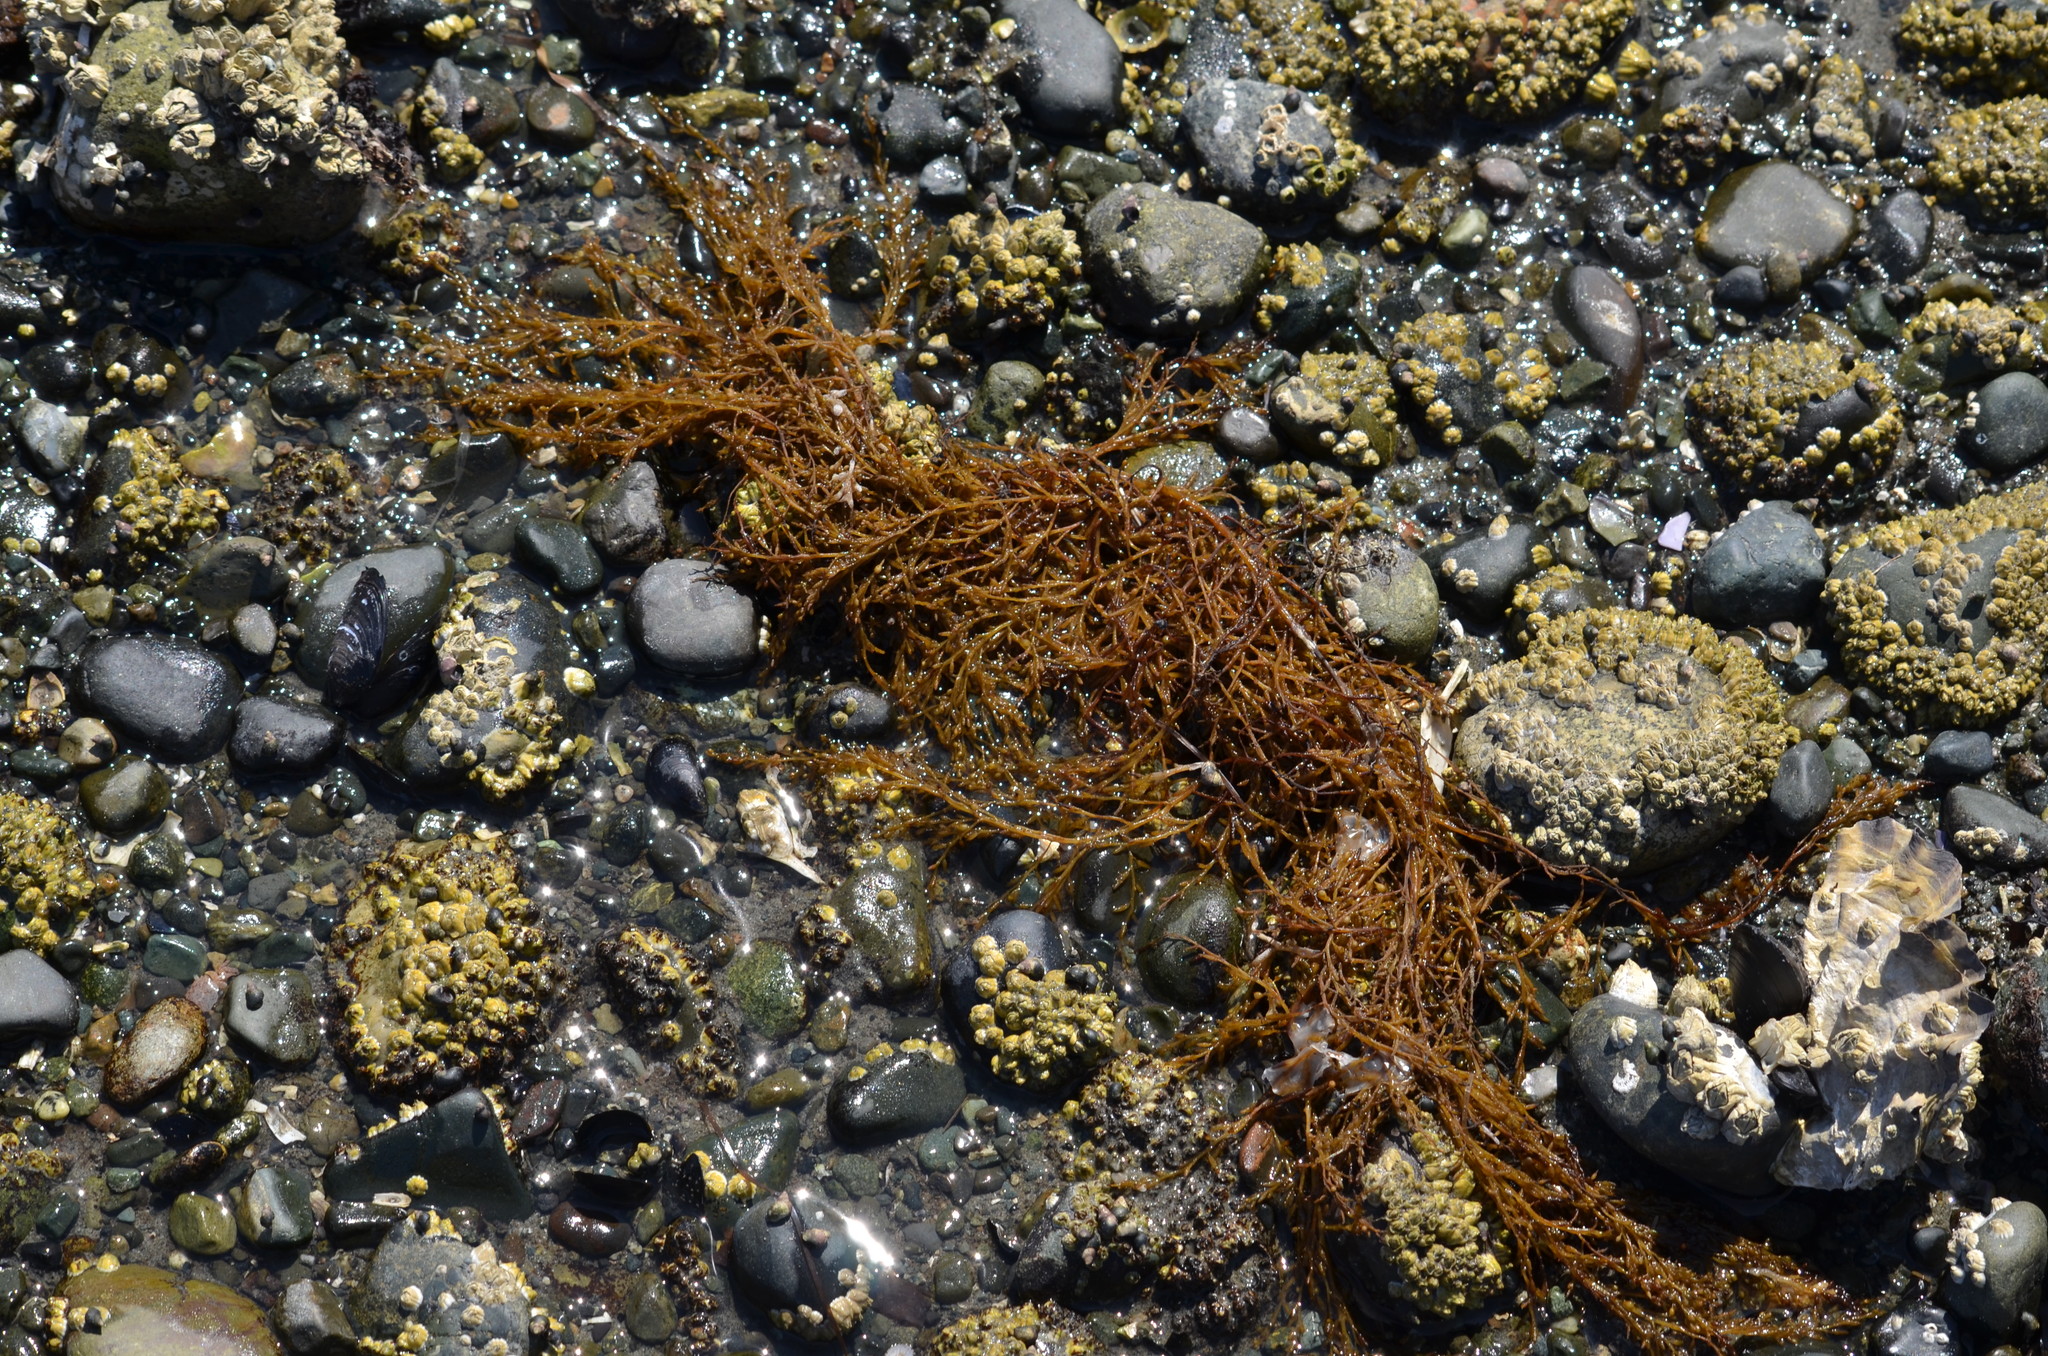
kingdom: Chromista
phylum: Ochrophyta
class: Phaeophyceae
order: Fucales
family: Sargassaceae
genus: Sargassum
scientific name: Sargassum muticum
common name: Japweed
